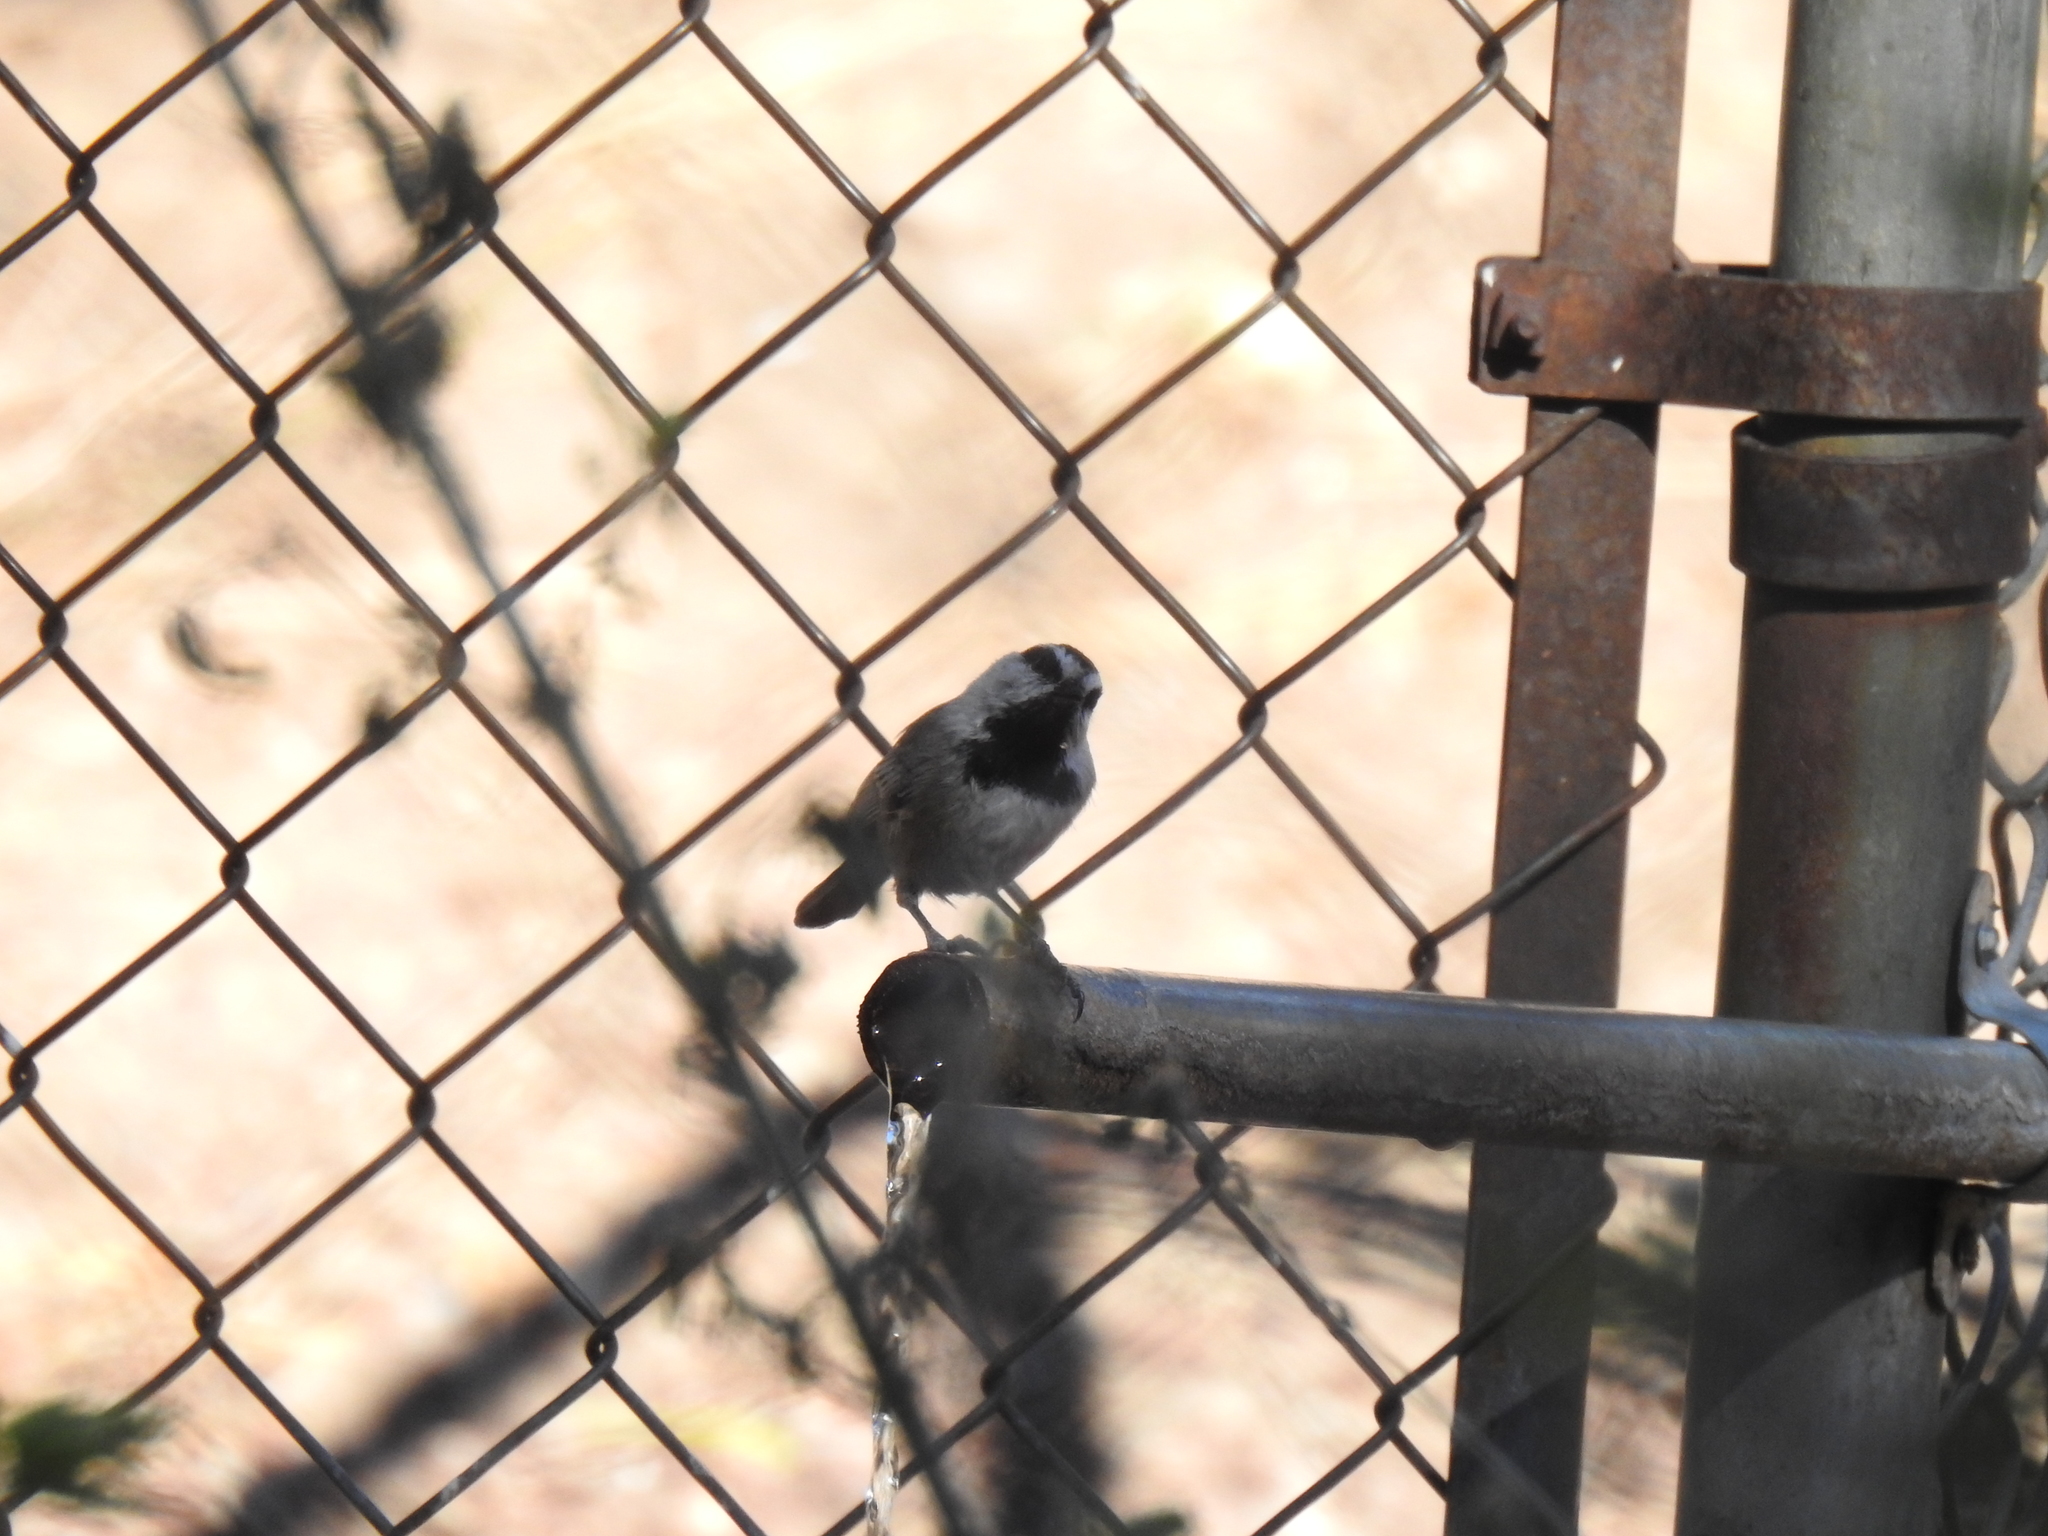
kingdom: Animalia
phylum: Chordata
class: Aves
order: Passeriformes
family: Paridae
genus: Poecile
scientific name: Poecile gambeli
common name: Mountain chickadee
